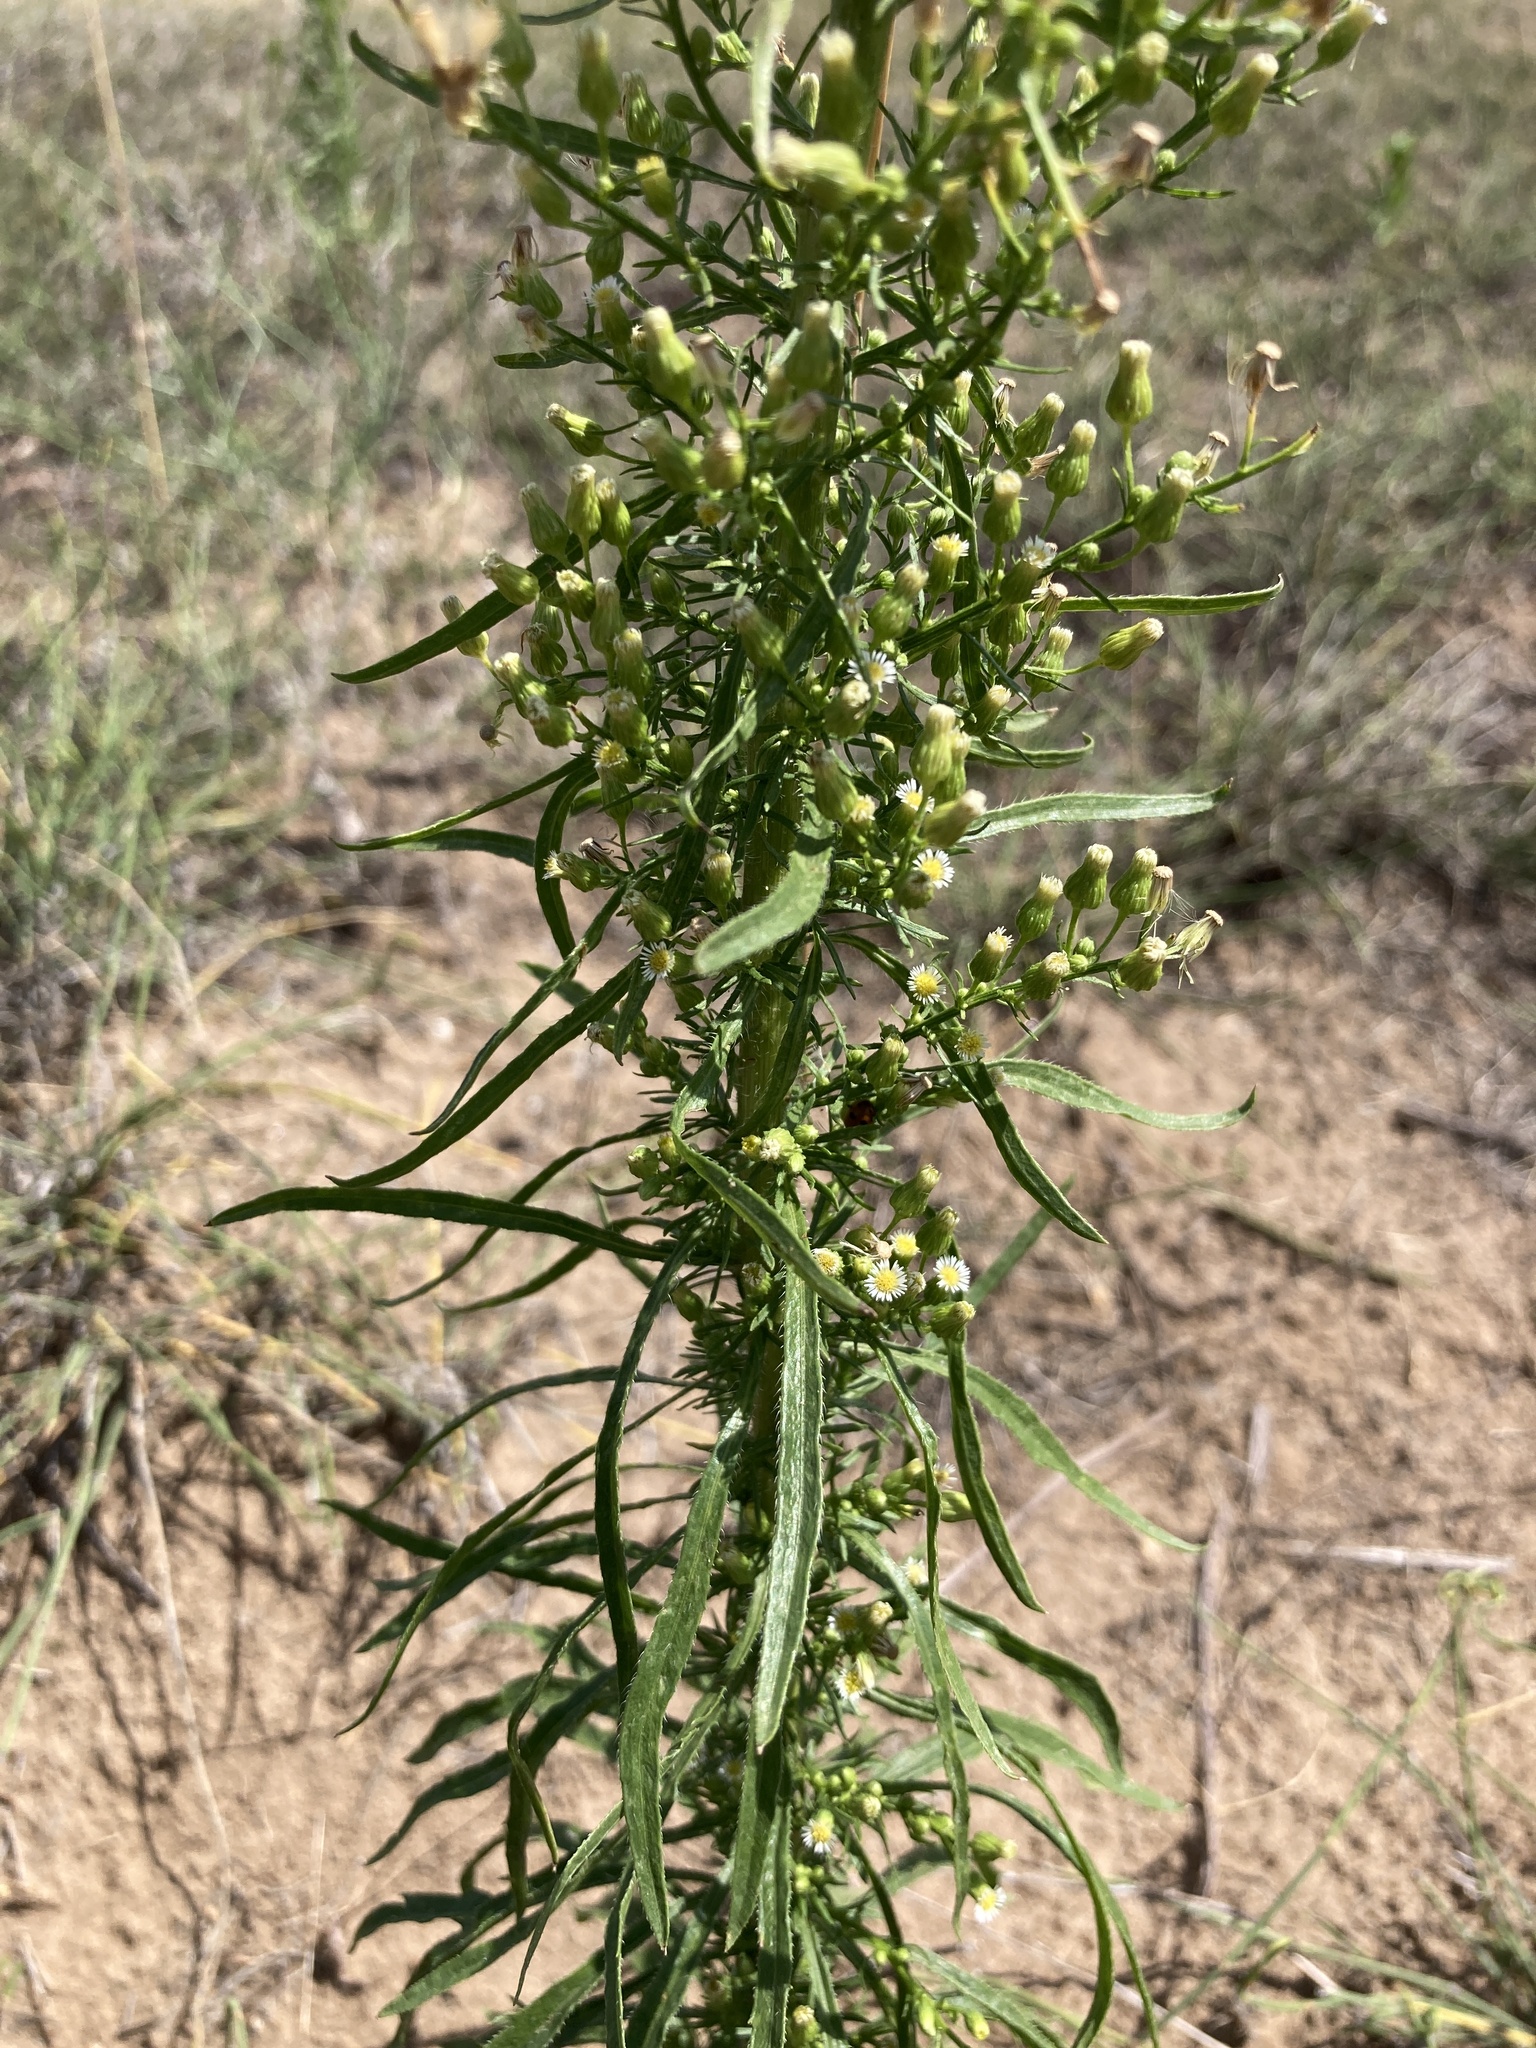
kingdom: Plantae
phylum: Tracheophyta
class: Magnoliopsida
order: Asterales
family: Asteraceae
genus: Erigeron
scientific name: Erigeron canadensis
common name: Canadian fleabane
